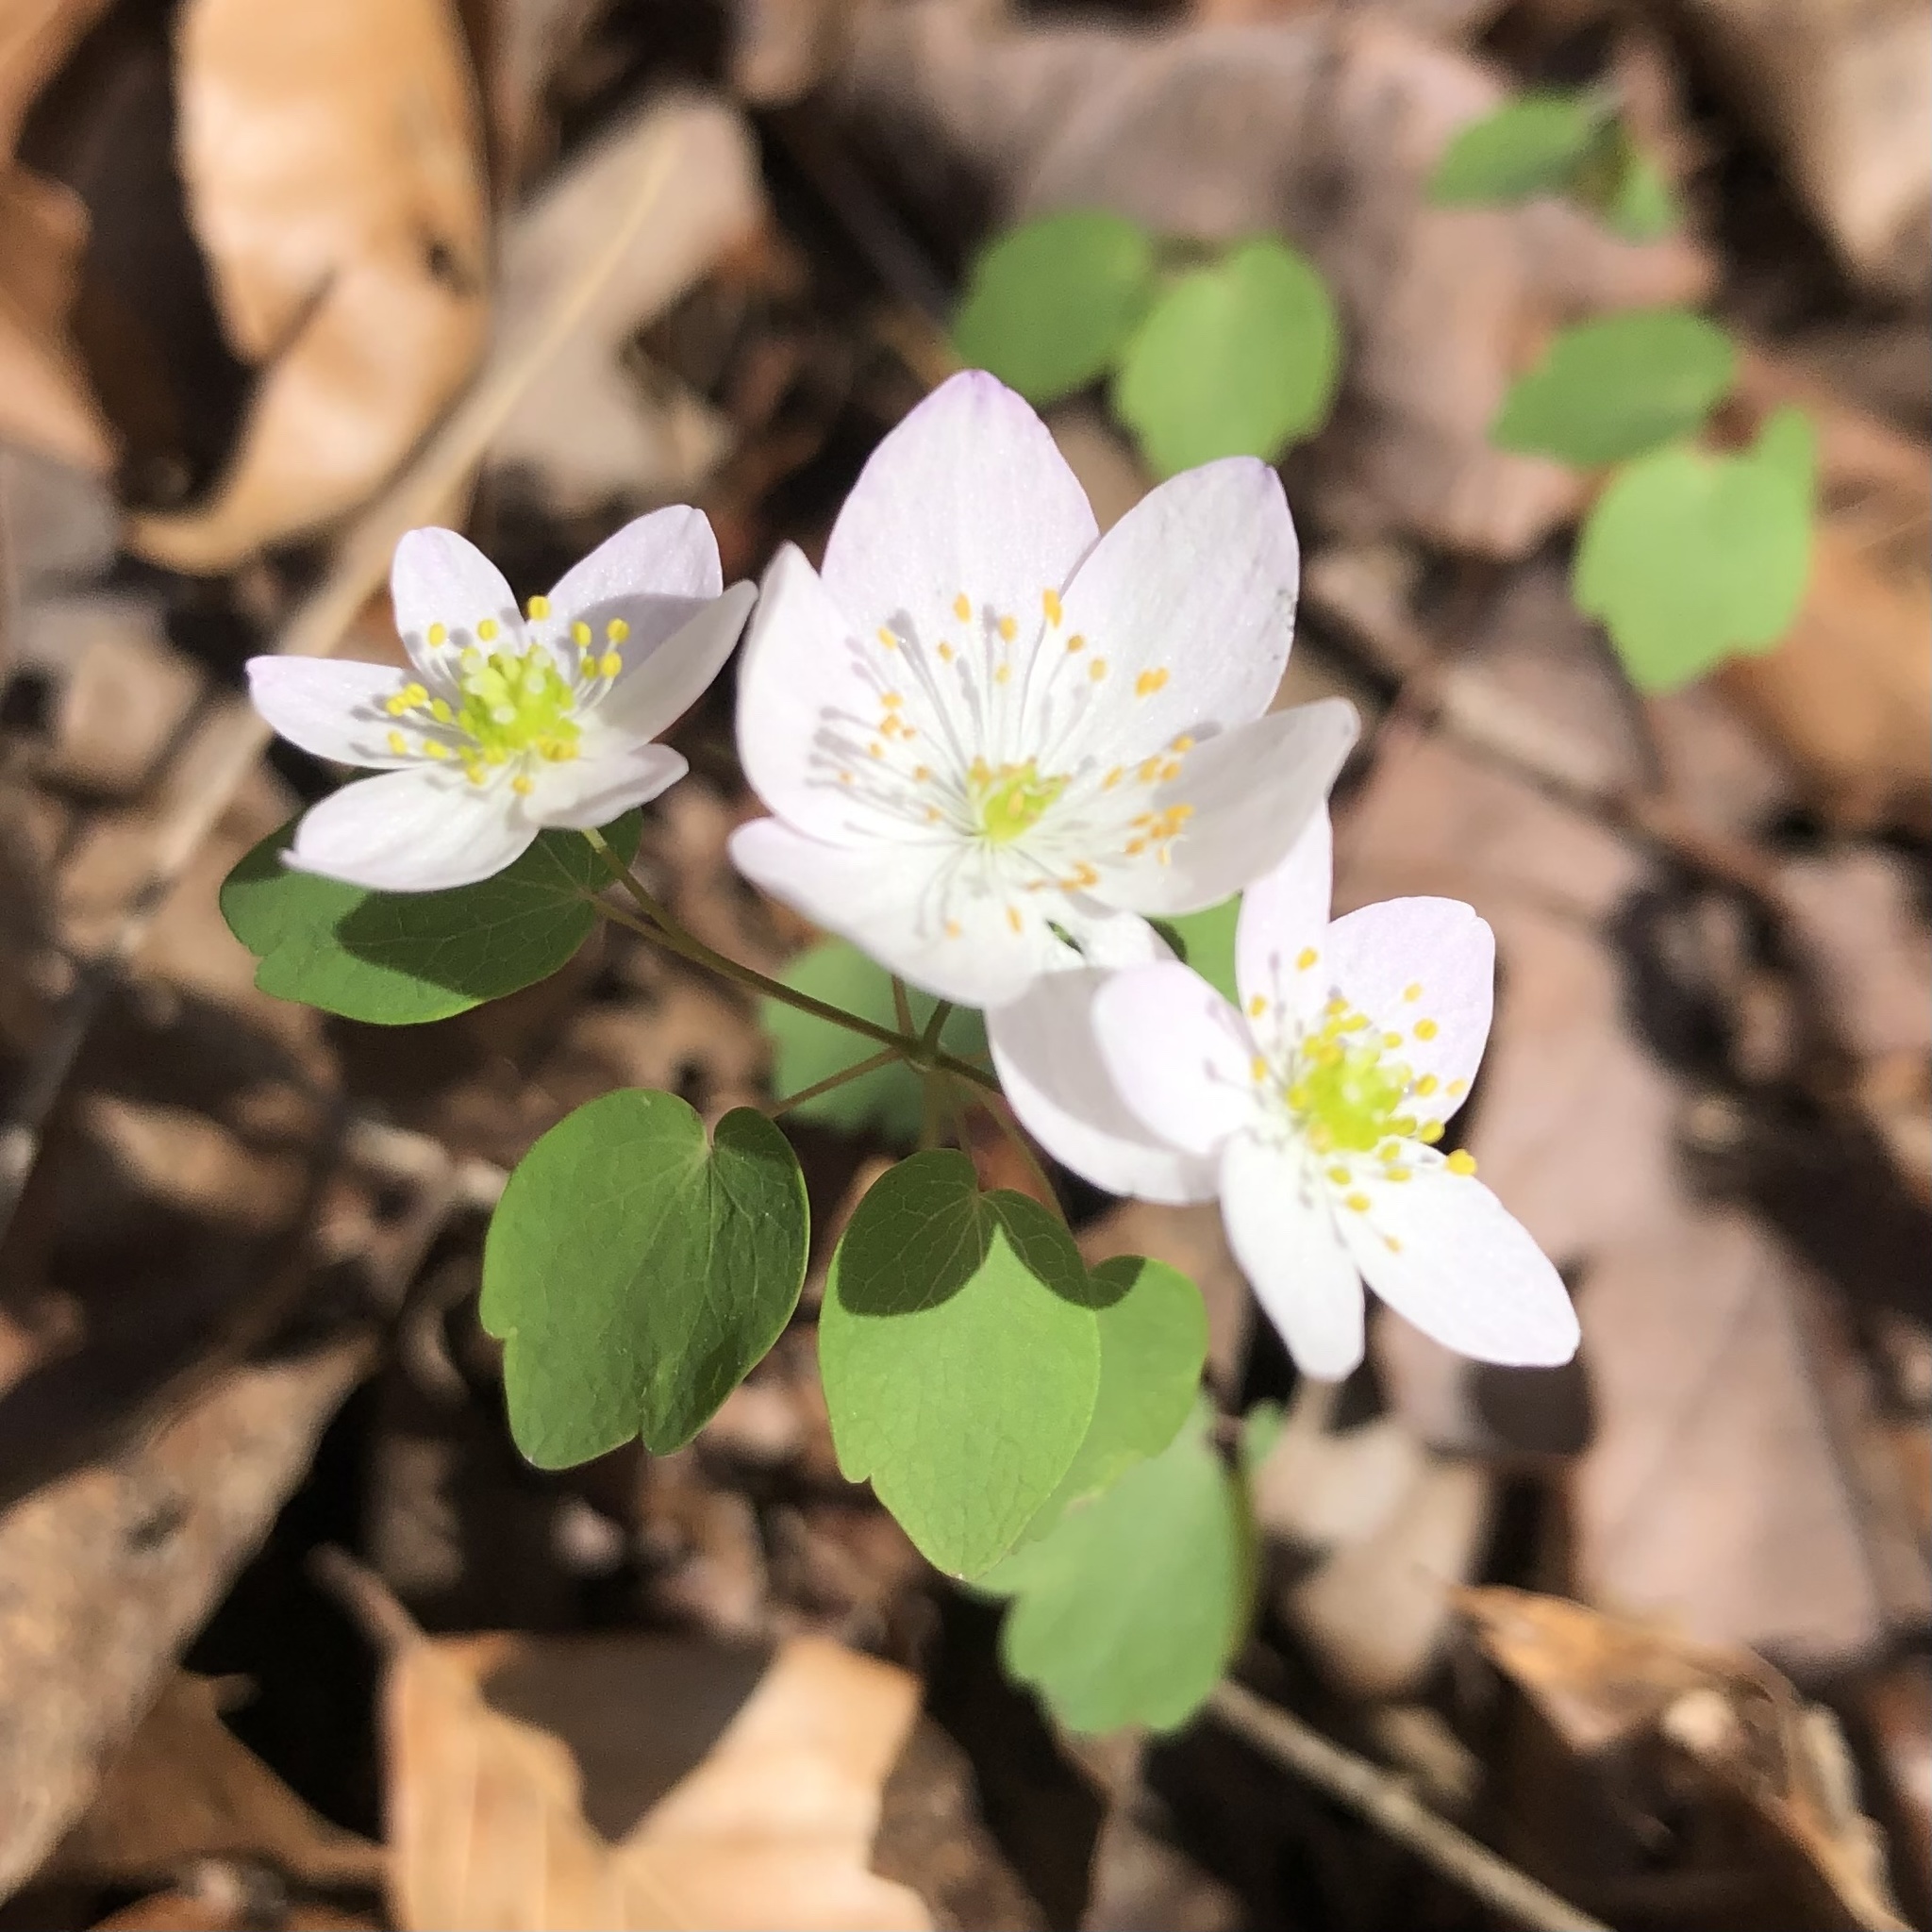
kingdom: Plantae
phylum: Tracheophyta
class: Magnoliopsida
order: Ranunculales
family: Ranunculaceae
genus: Thalictrum
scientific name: Thalictrum thalictroides
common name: Rue-anemone
